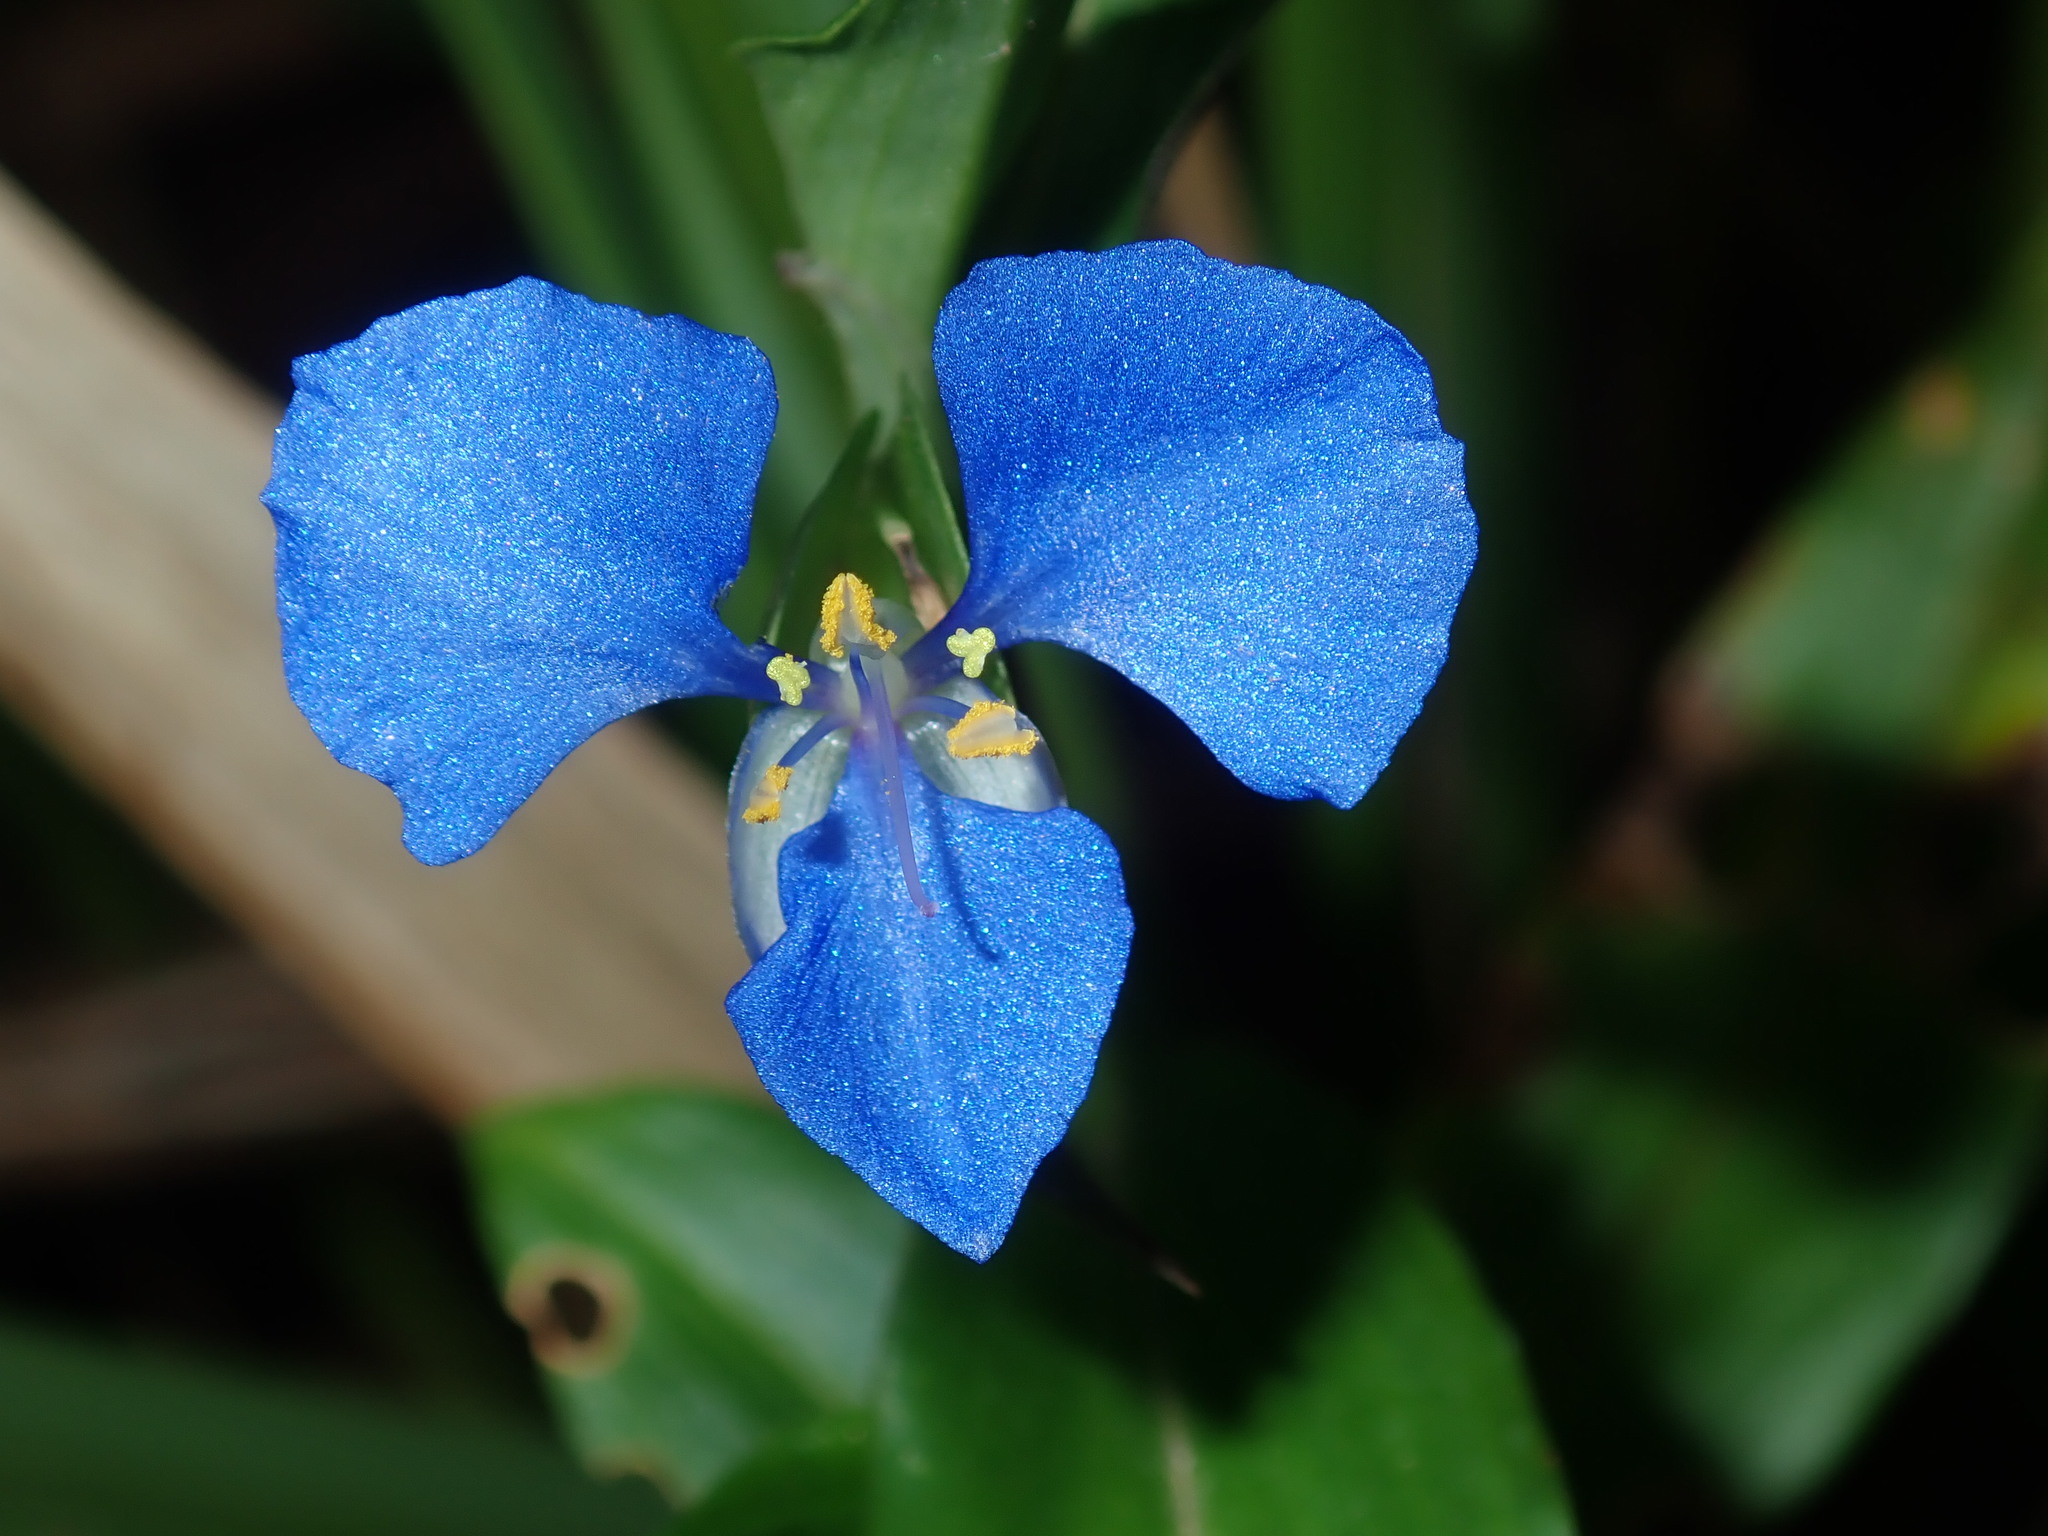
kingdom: Plantae
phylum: Tracheophyta
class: Liliopsida
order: Commelinales
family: Commelinaceae
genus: Commelina
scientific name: Commelina cyanea
